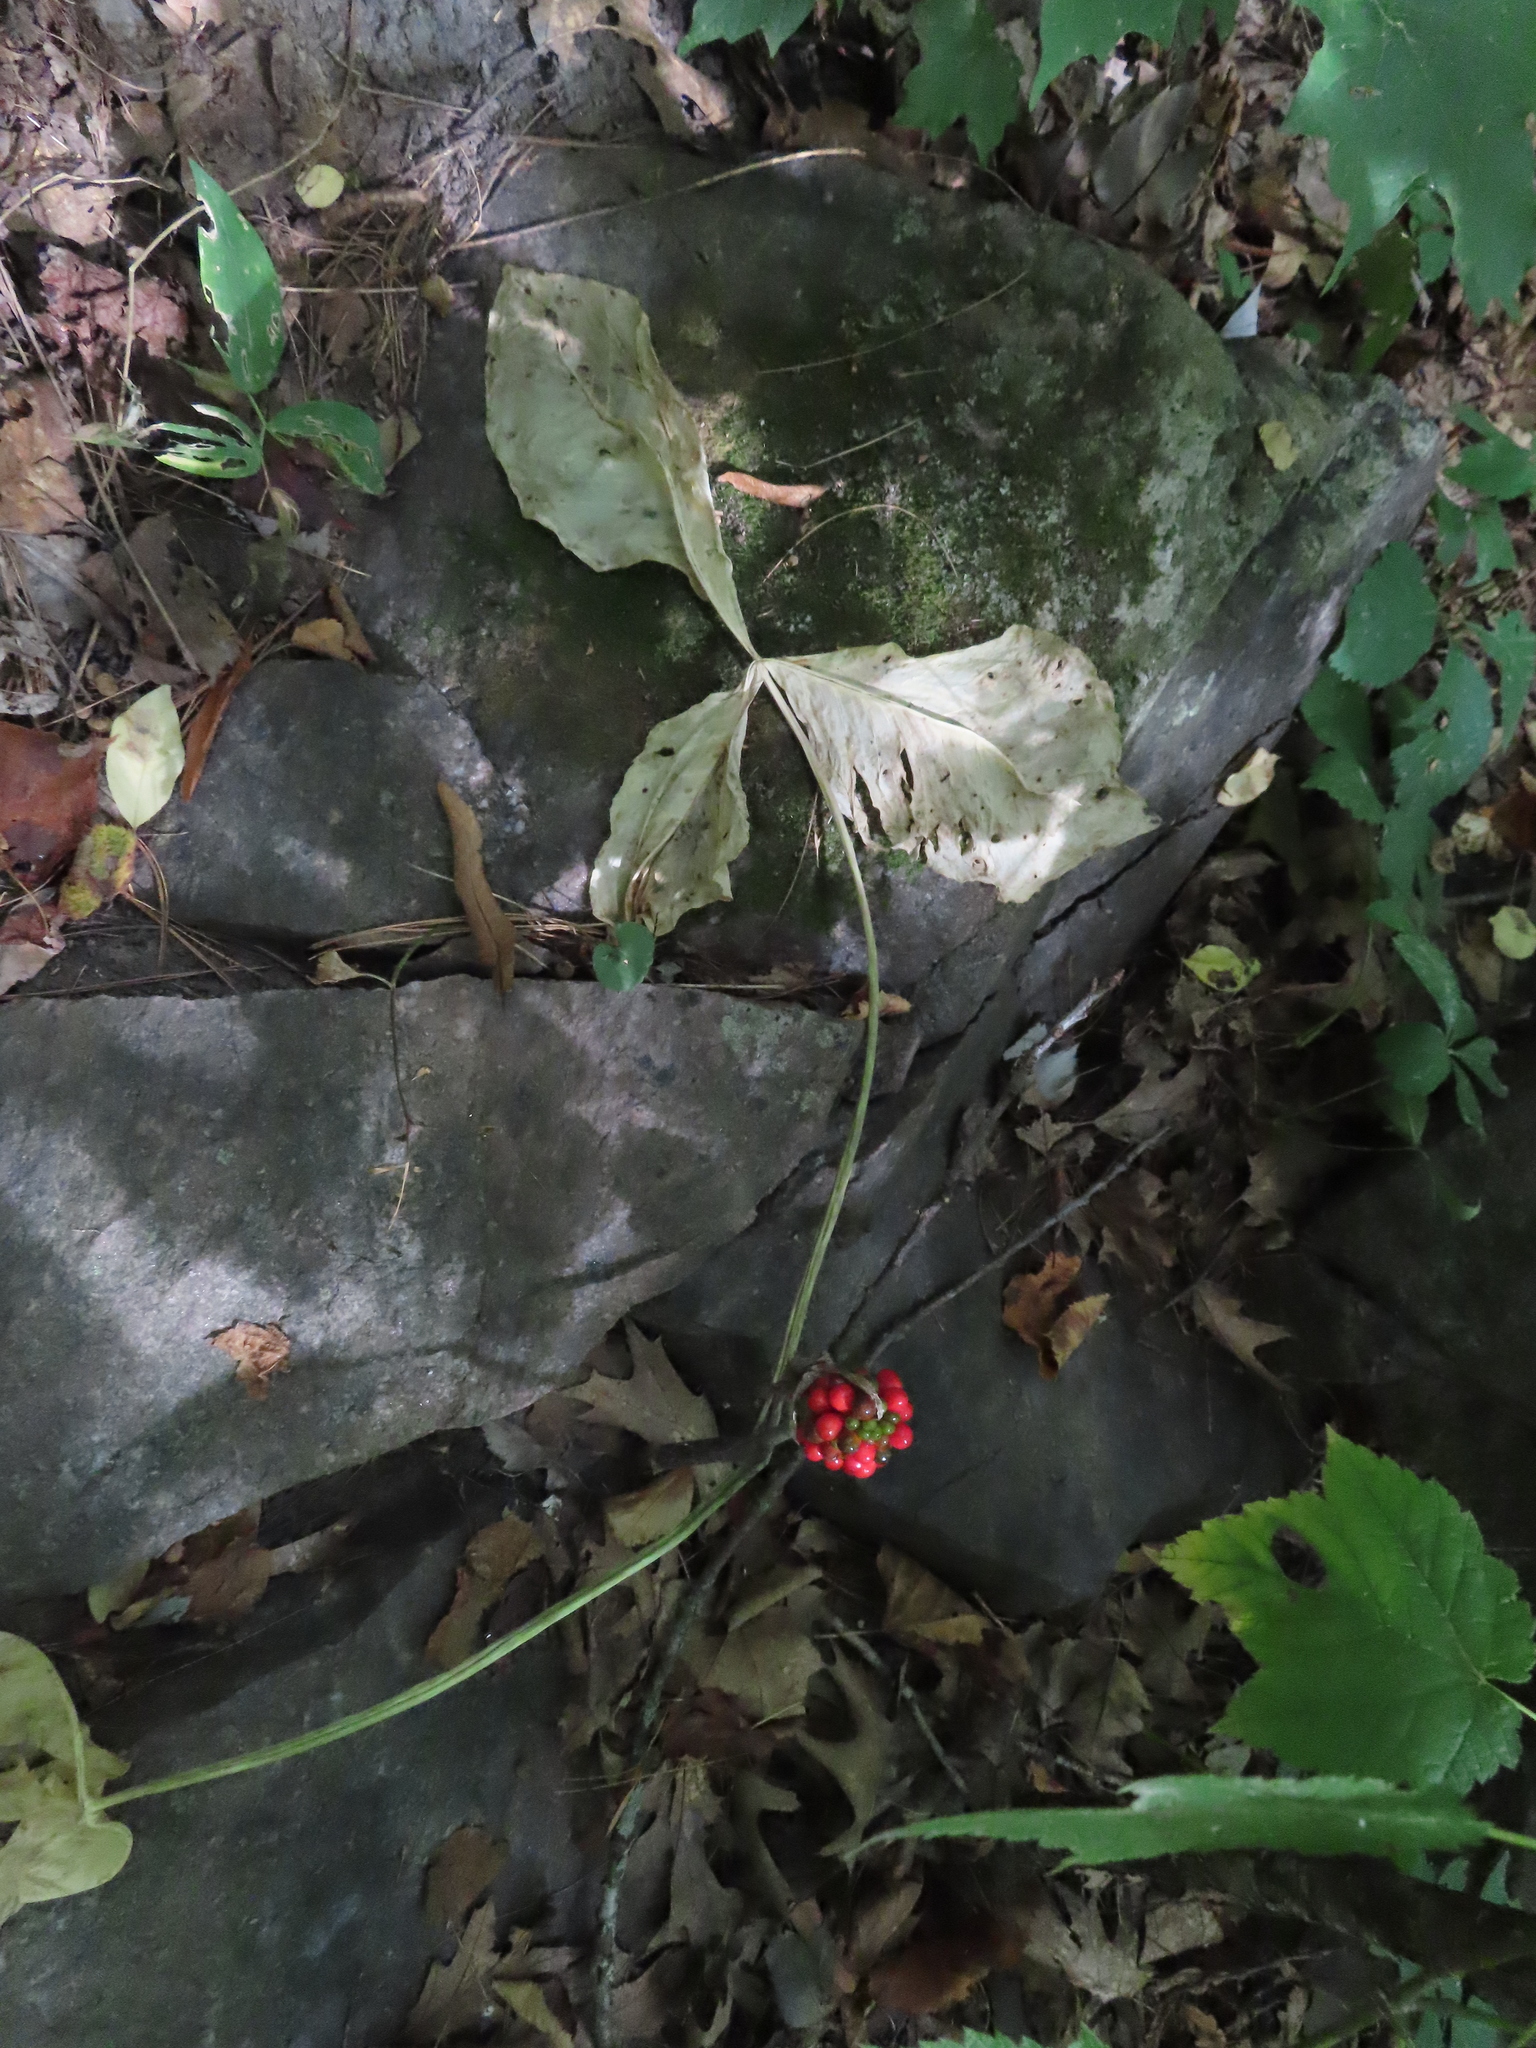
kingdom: Plantae
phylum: Tracheophyta
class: Liliopsida
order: Alismatales
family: Araceae
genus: Arisaema
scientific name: Arisaema triphyllum
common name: Jack-in-the-pulpit
